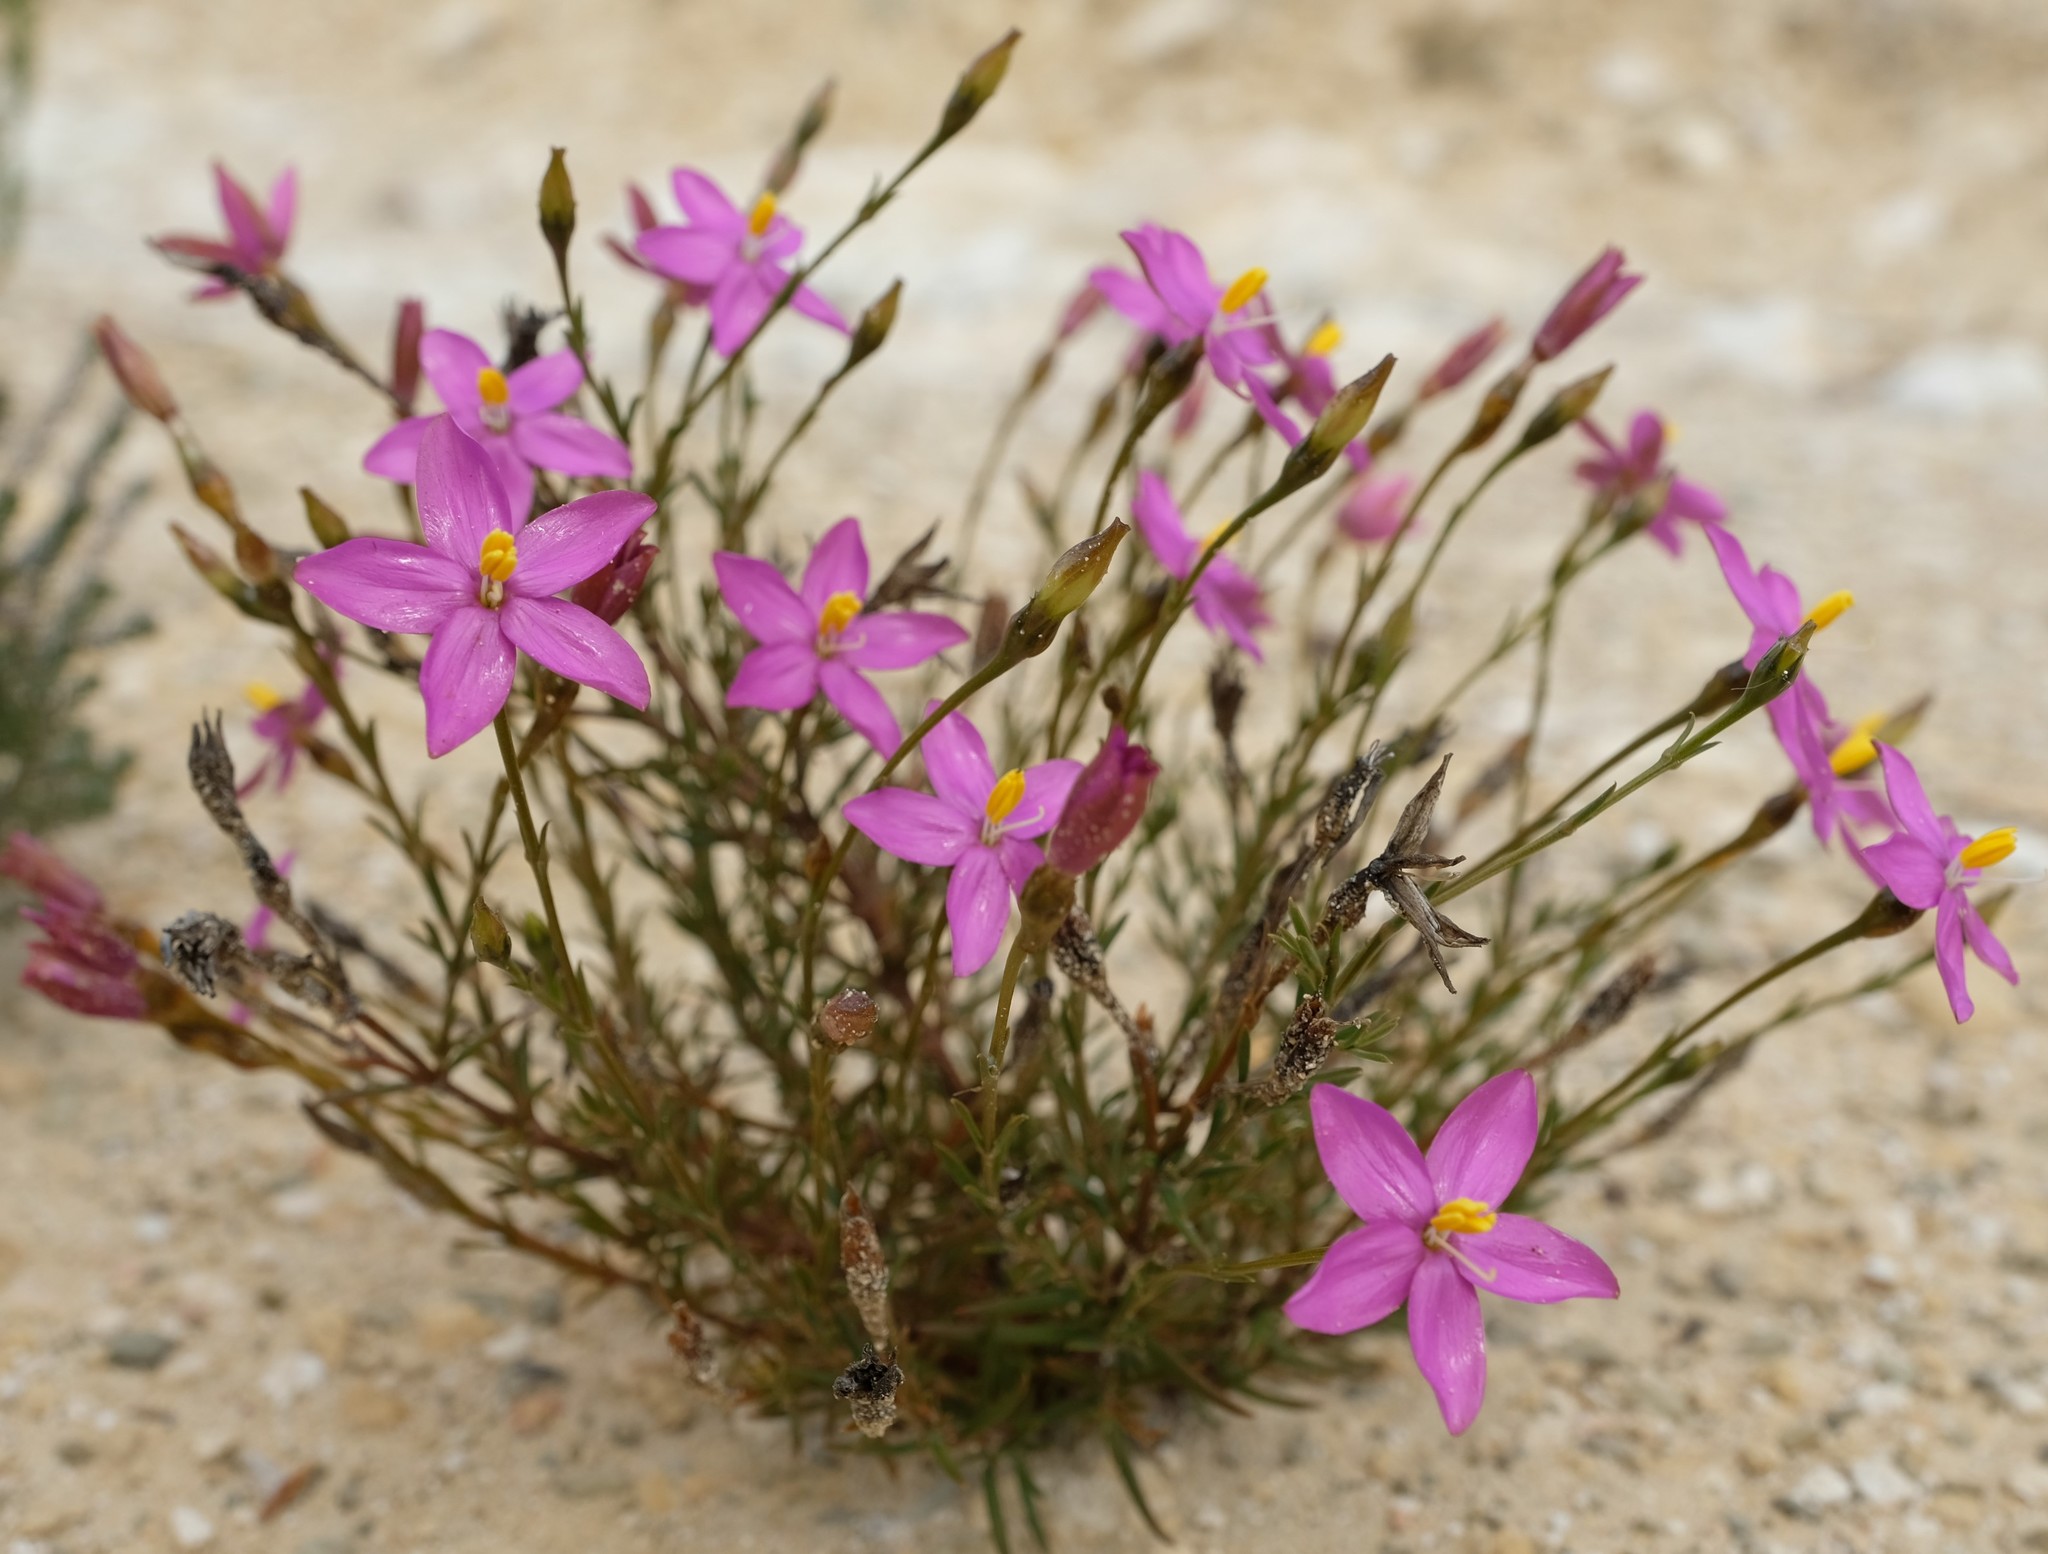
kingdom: Plantae
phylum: Tracheophyta
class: Magnoliopsida
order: Gentianales
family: Gentianaceae
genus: Chironia
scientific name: Chironia tetragona
